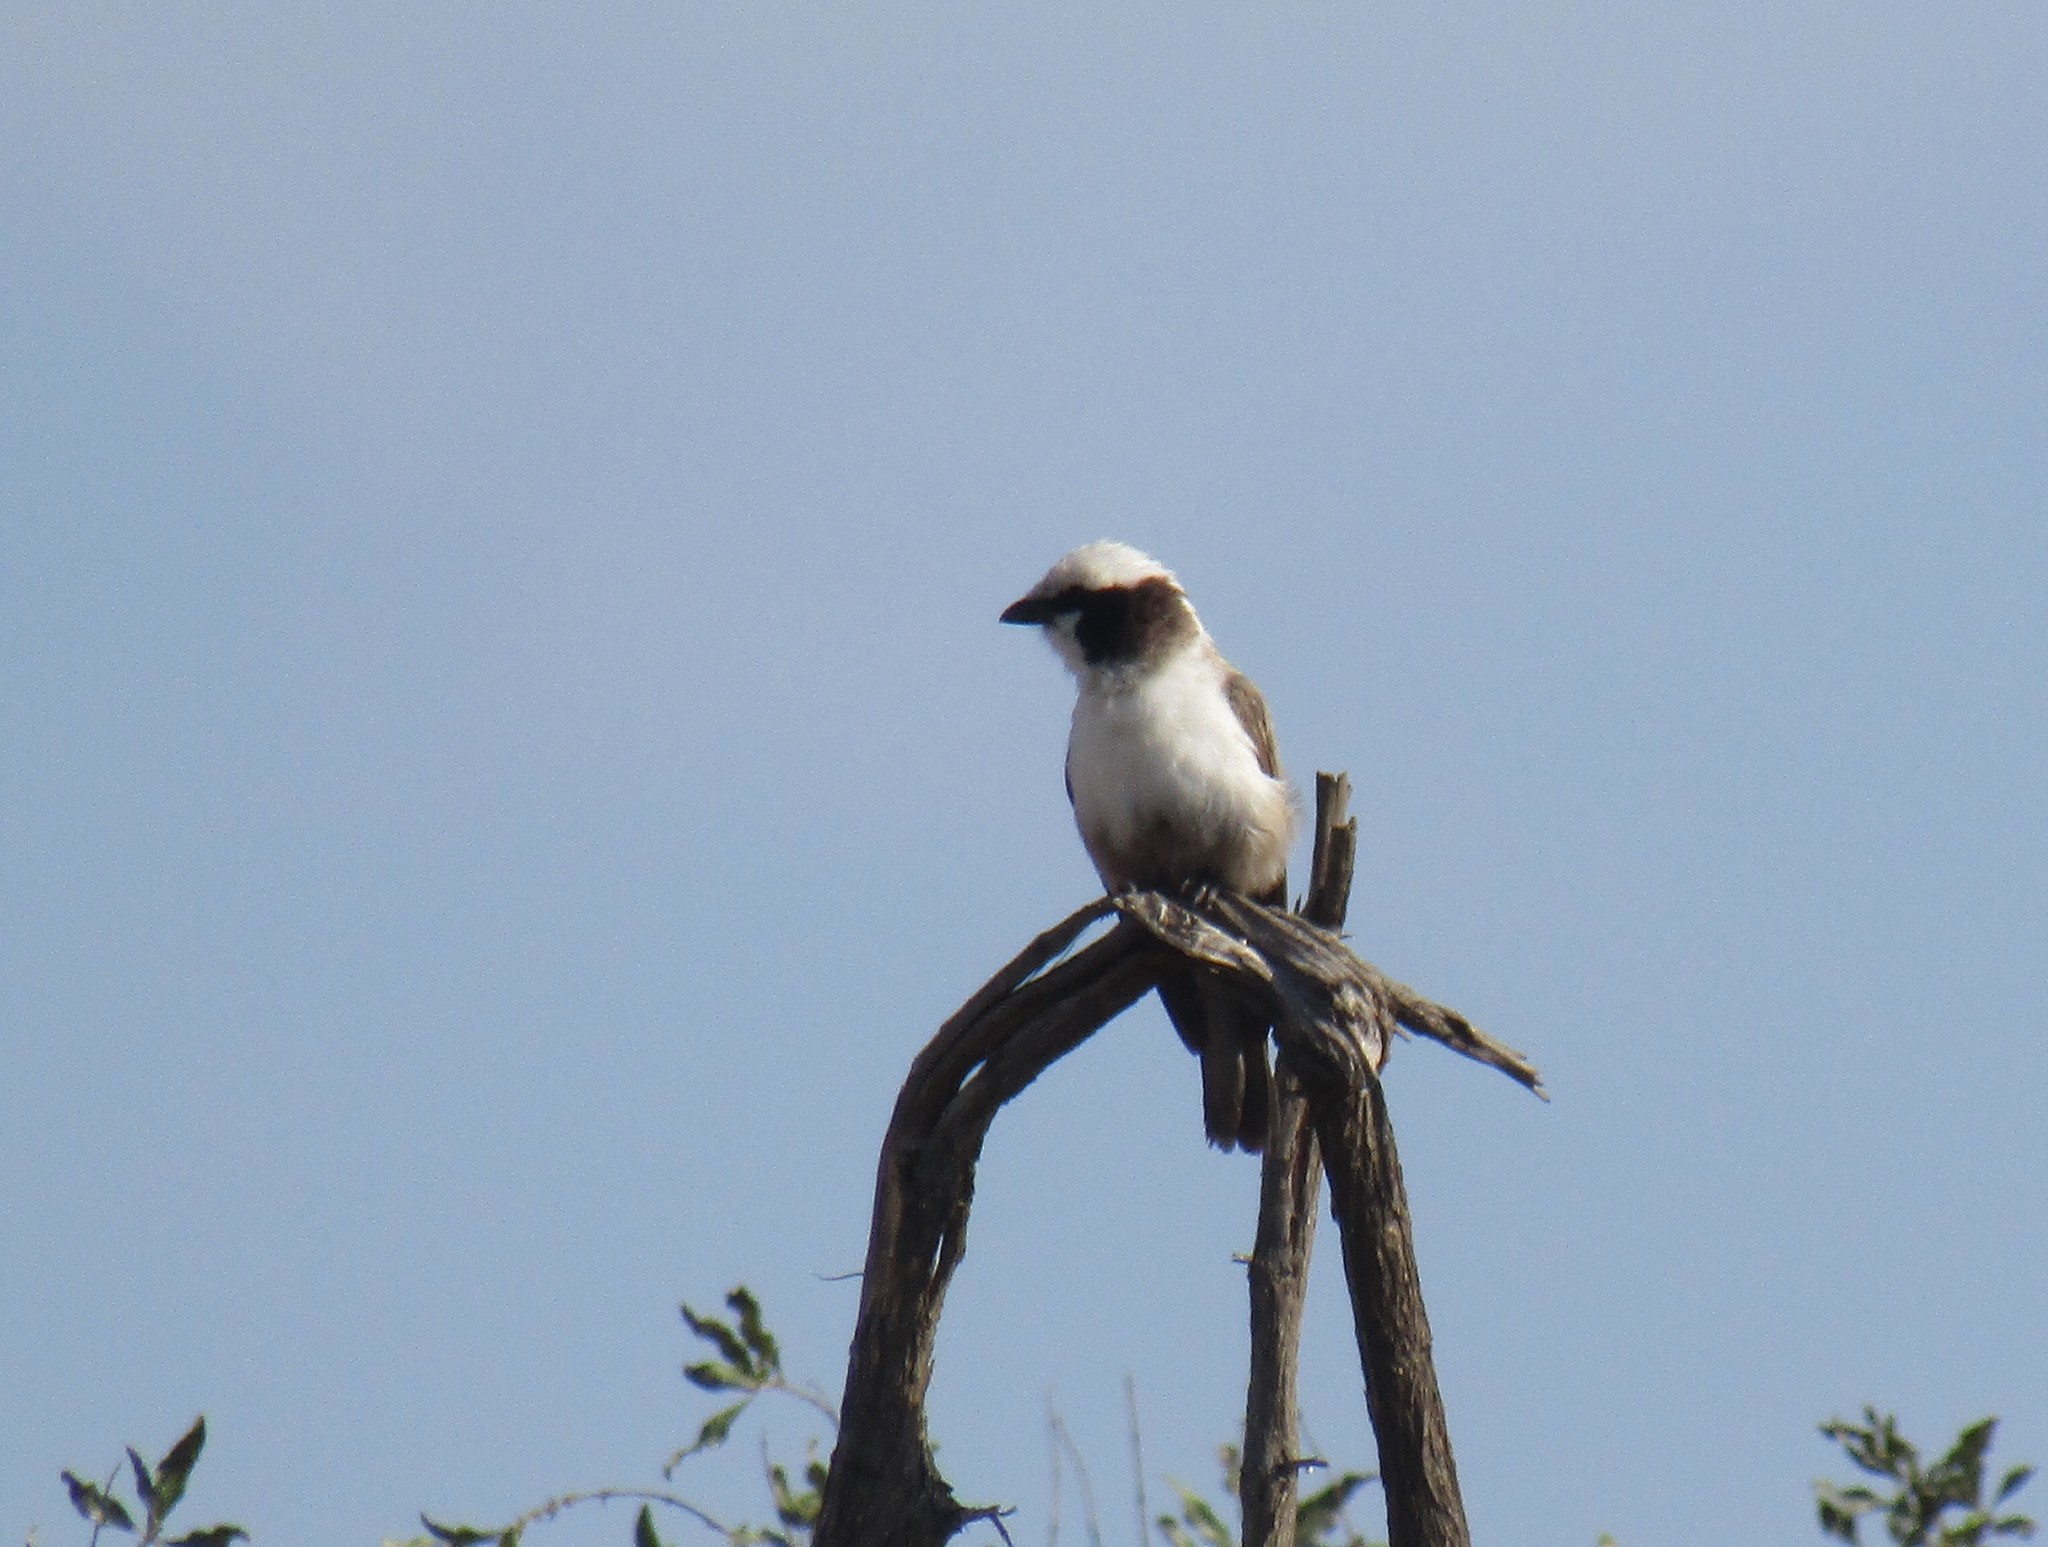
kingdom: Animalia
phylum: Chordata
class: Aves
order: Passeriformes
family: Laniidae
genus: Eurocephalus
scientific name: Eurocephalus anguitimens
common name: Southern white-crowned shrike
